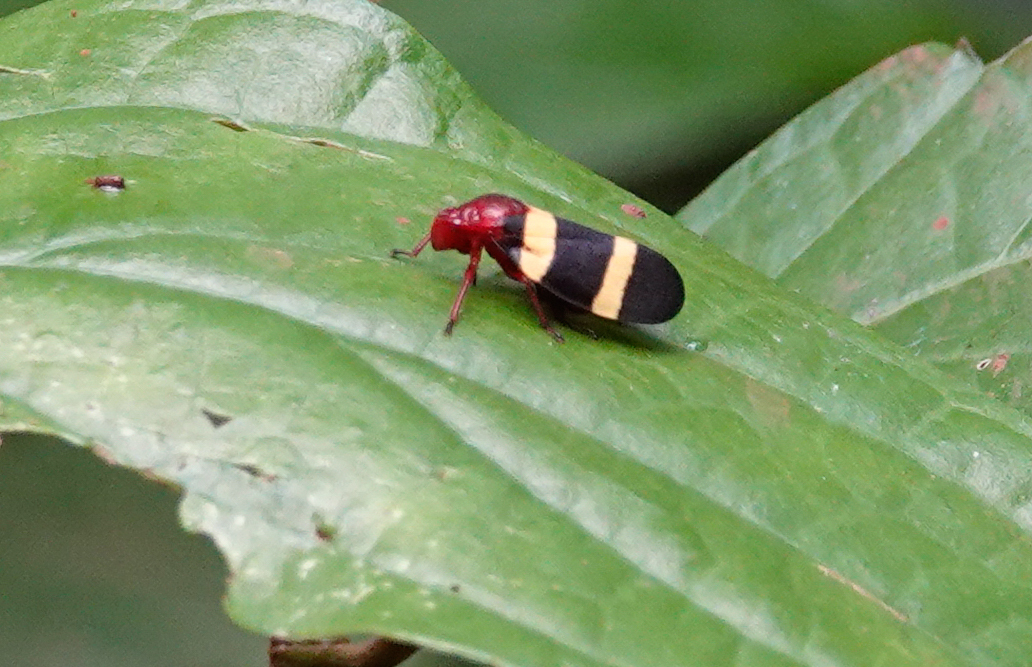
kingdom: Animalia
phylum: Arthropoda
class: Insecta
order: Hemiptera
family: Cercopidae
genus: Sphenorhina
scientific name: Sphenorhina rubra
